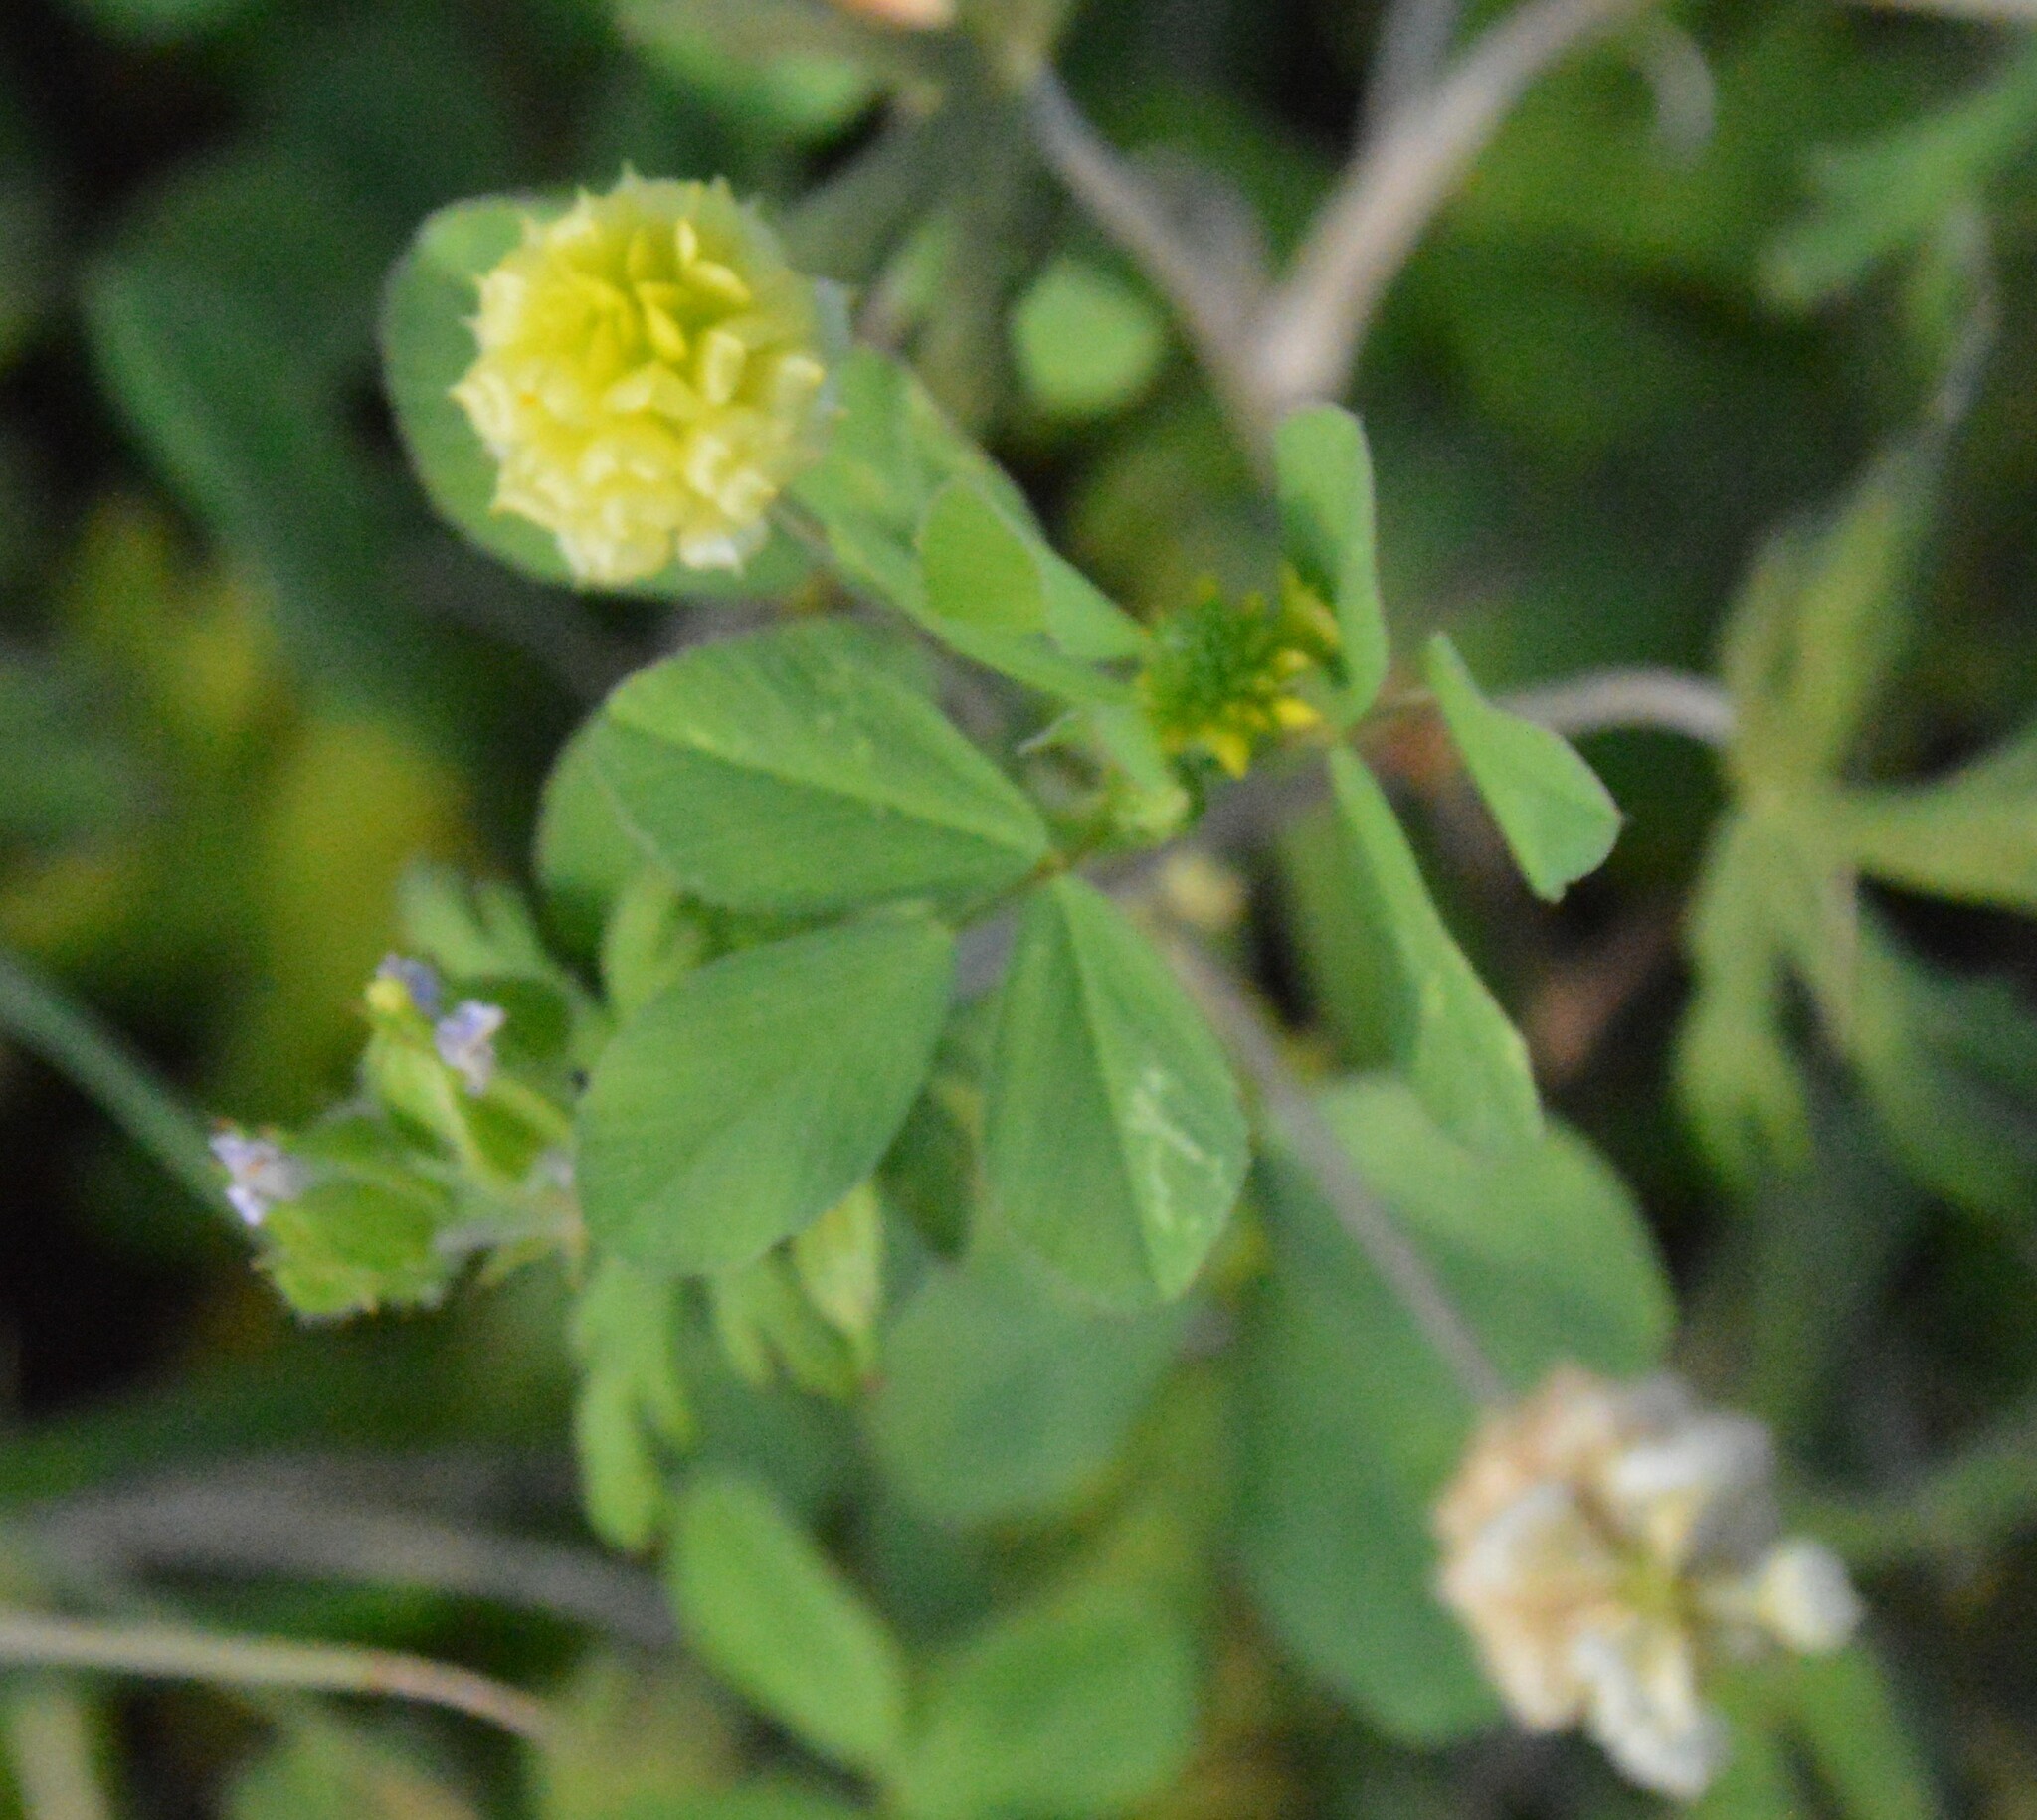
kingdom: Plantae
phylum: Tracheophyta
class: Magnoliopsida
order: Fabales
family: Fabaceae
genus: Trifolium
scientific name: Trifolium campestre
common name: Field clover
